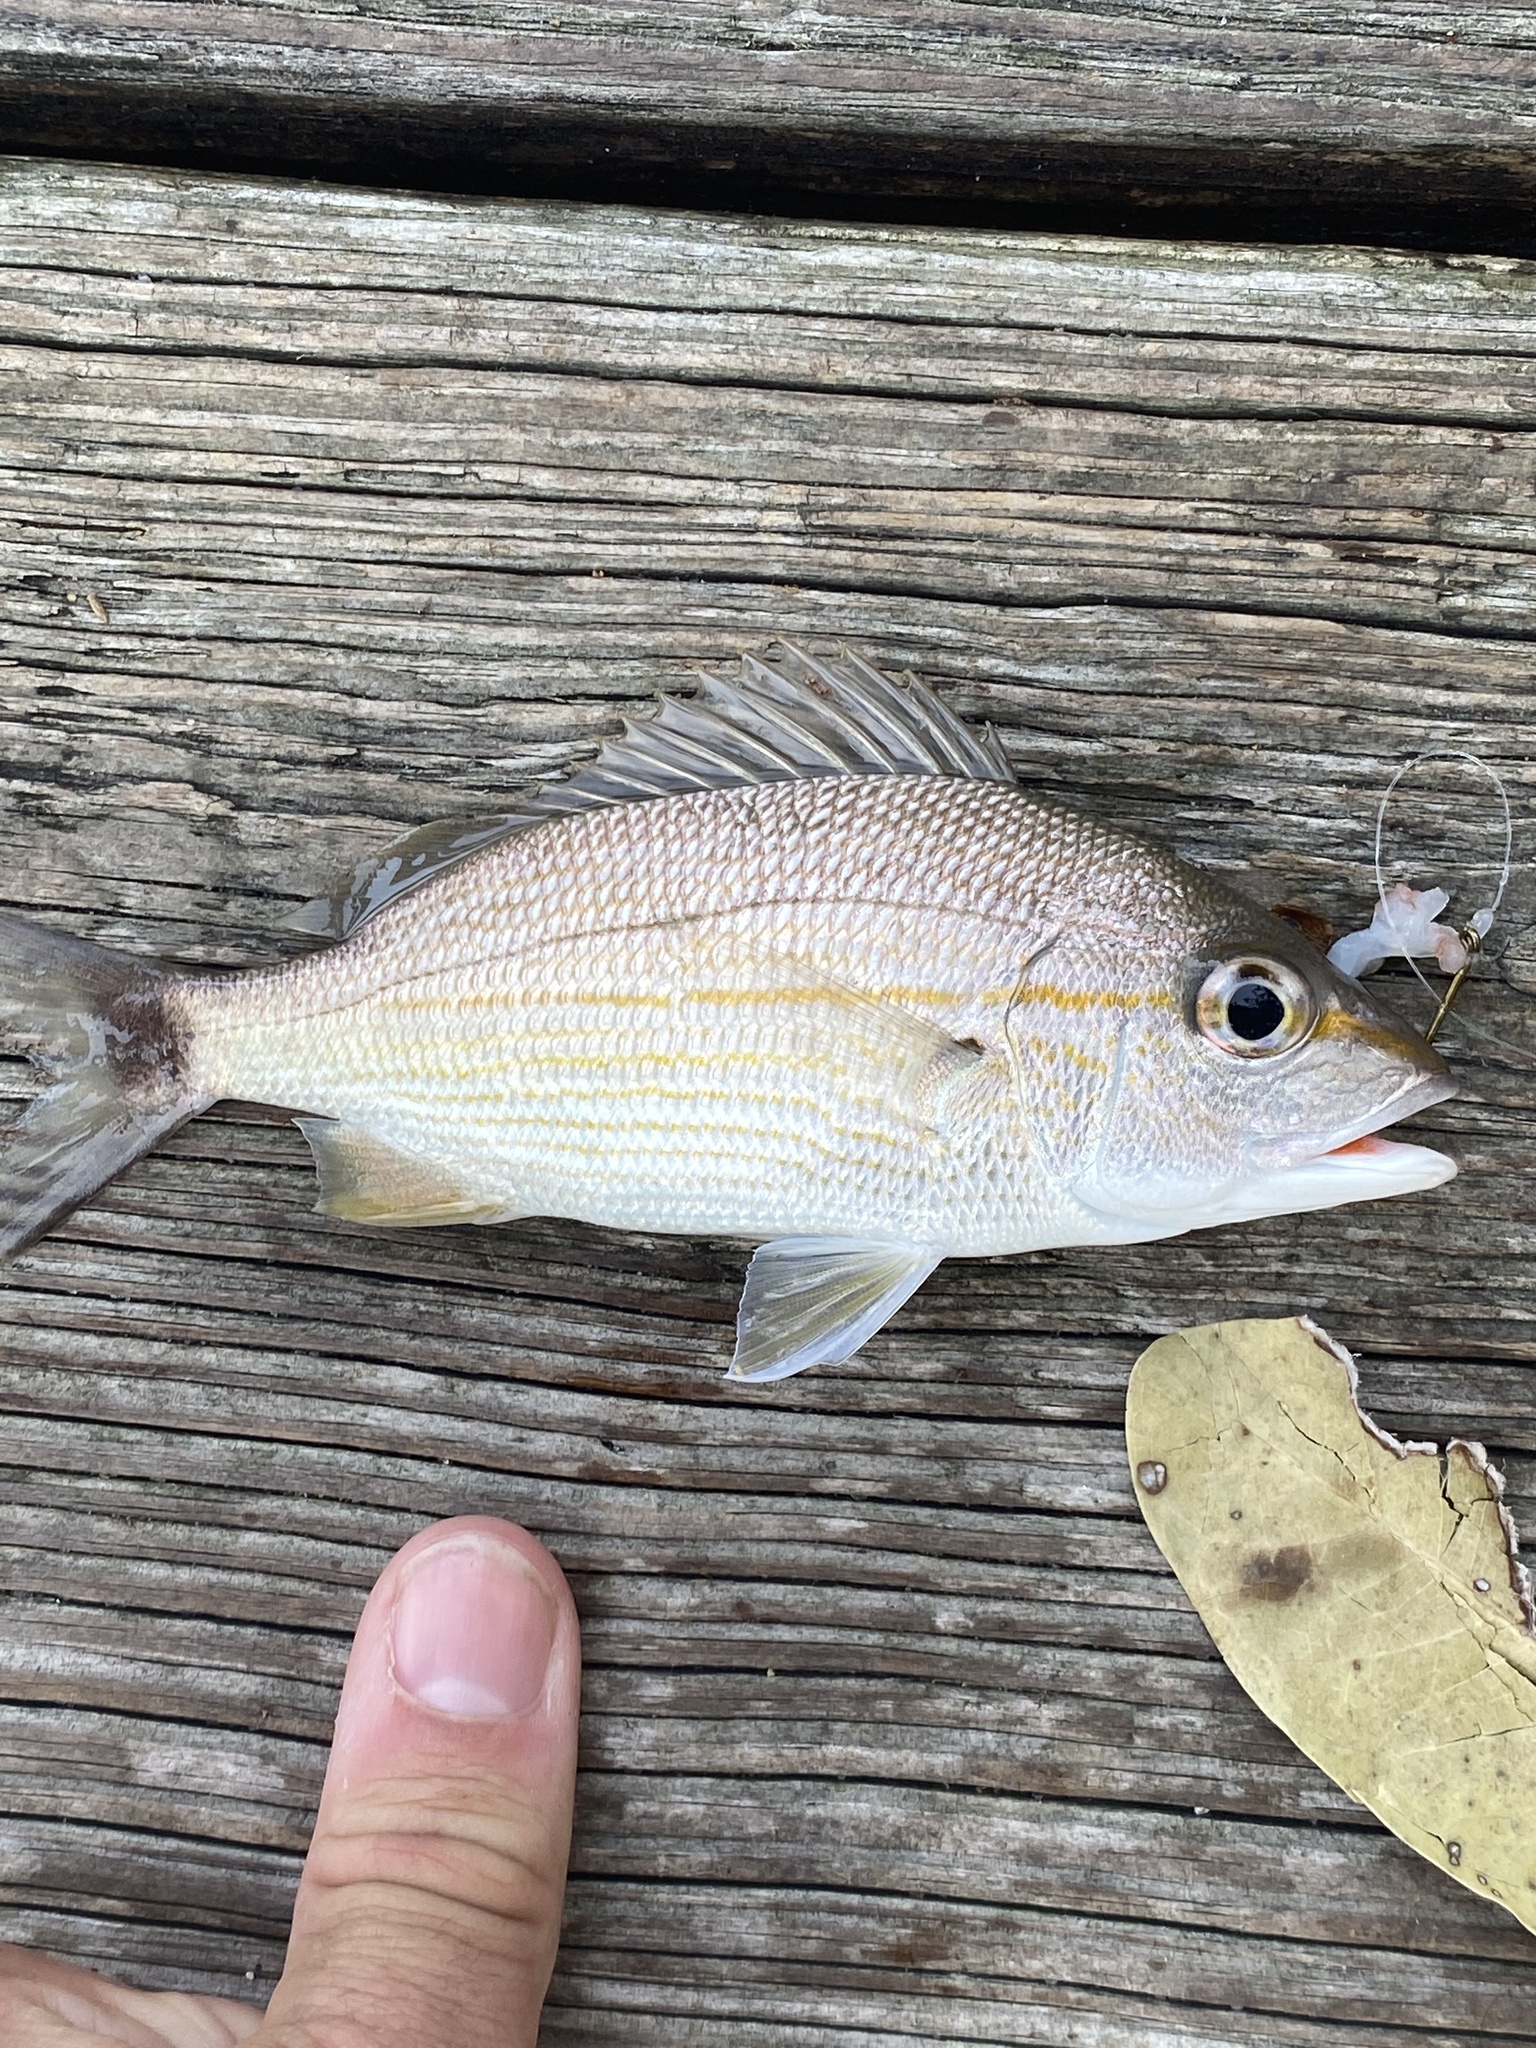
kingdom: Animalia
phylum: Chordata
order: Perciformes
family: Haemulidae
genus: Haemulon
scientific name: Haemulon aurolineatum
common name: Tomtate
